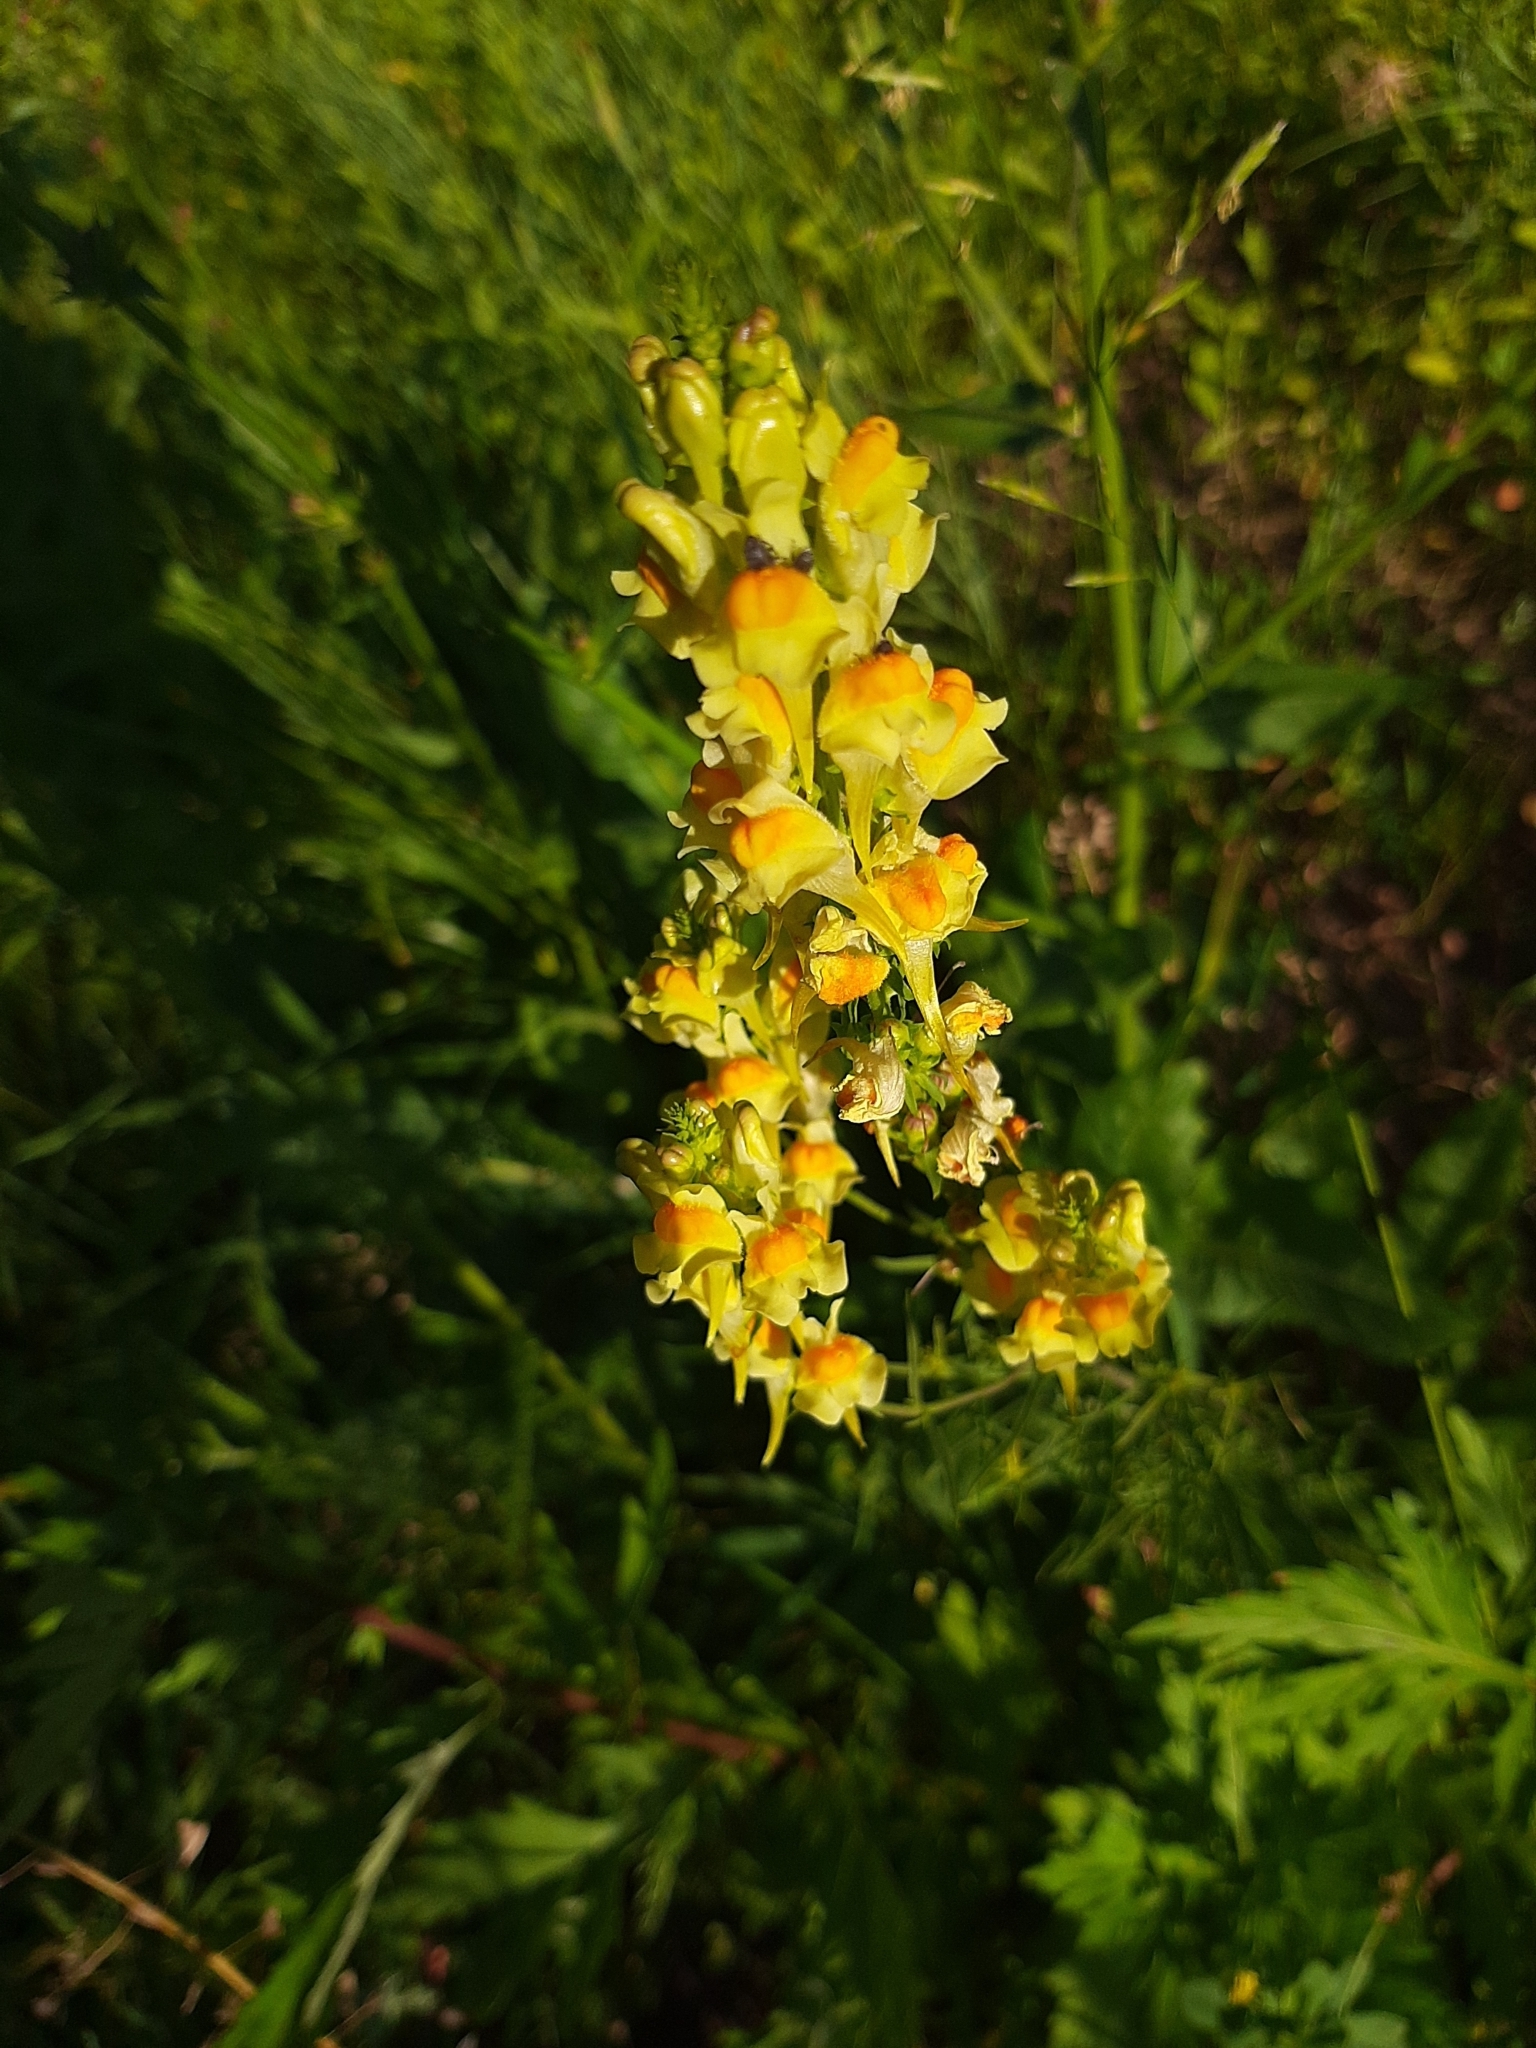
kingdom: Plantae
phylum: Tracheophyta
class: Magnoliopsida
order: Lamiales
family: Plantaginaceae
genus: Linaria
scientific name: Linaria vulgaris
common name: Butter and eggs
